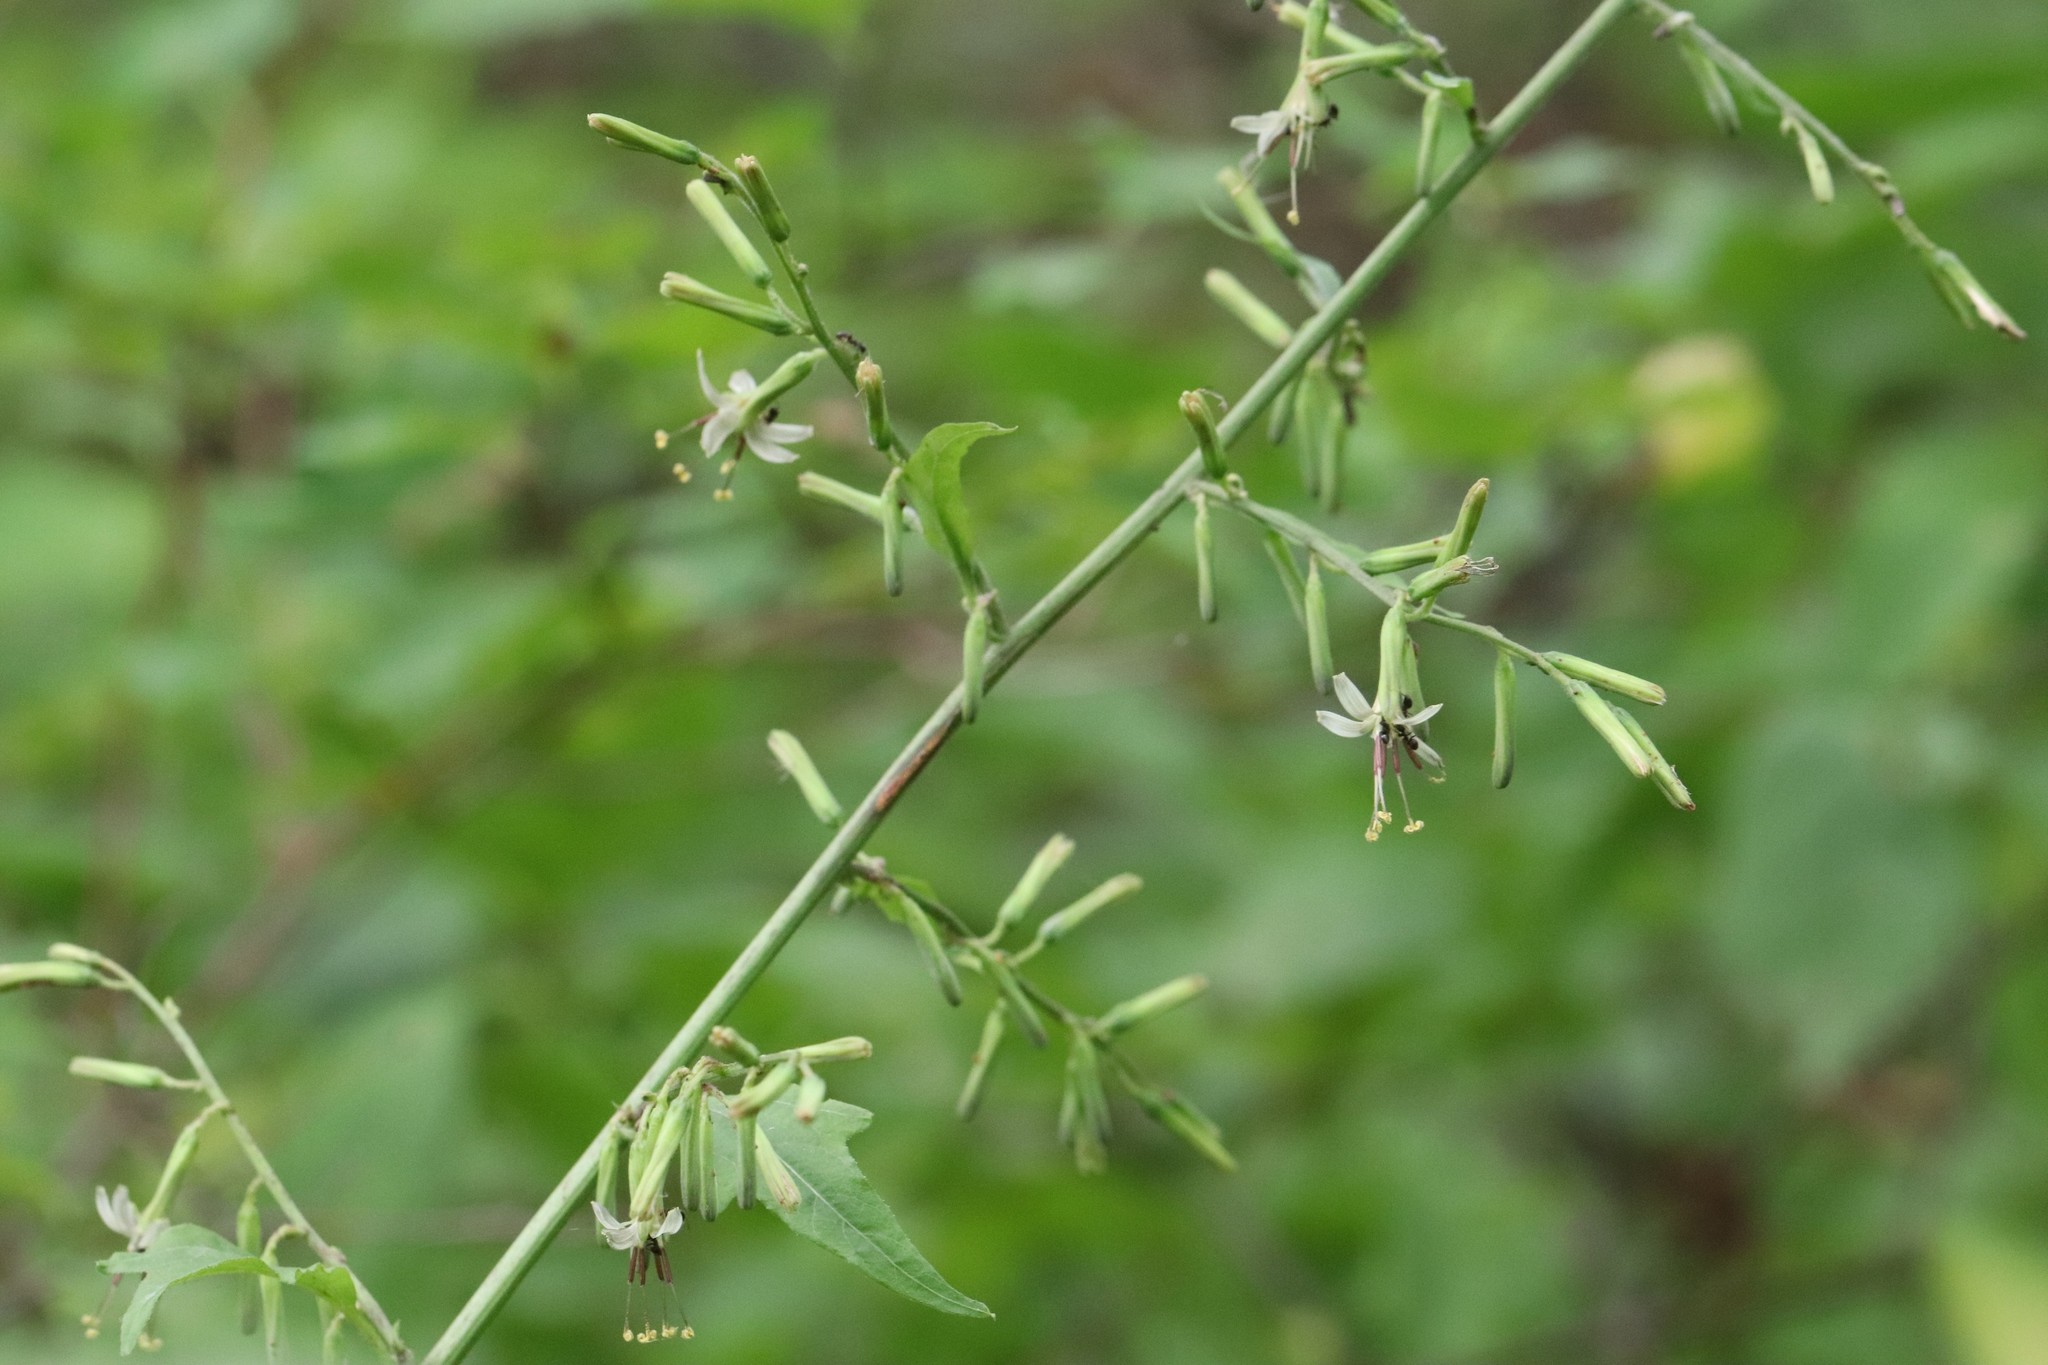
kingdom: Plantae
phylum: Tracheophyta
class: Magnoliopsida
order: Asterales
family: Asteraceae
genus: Nabalus
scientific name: Nabalus tatarinowii
